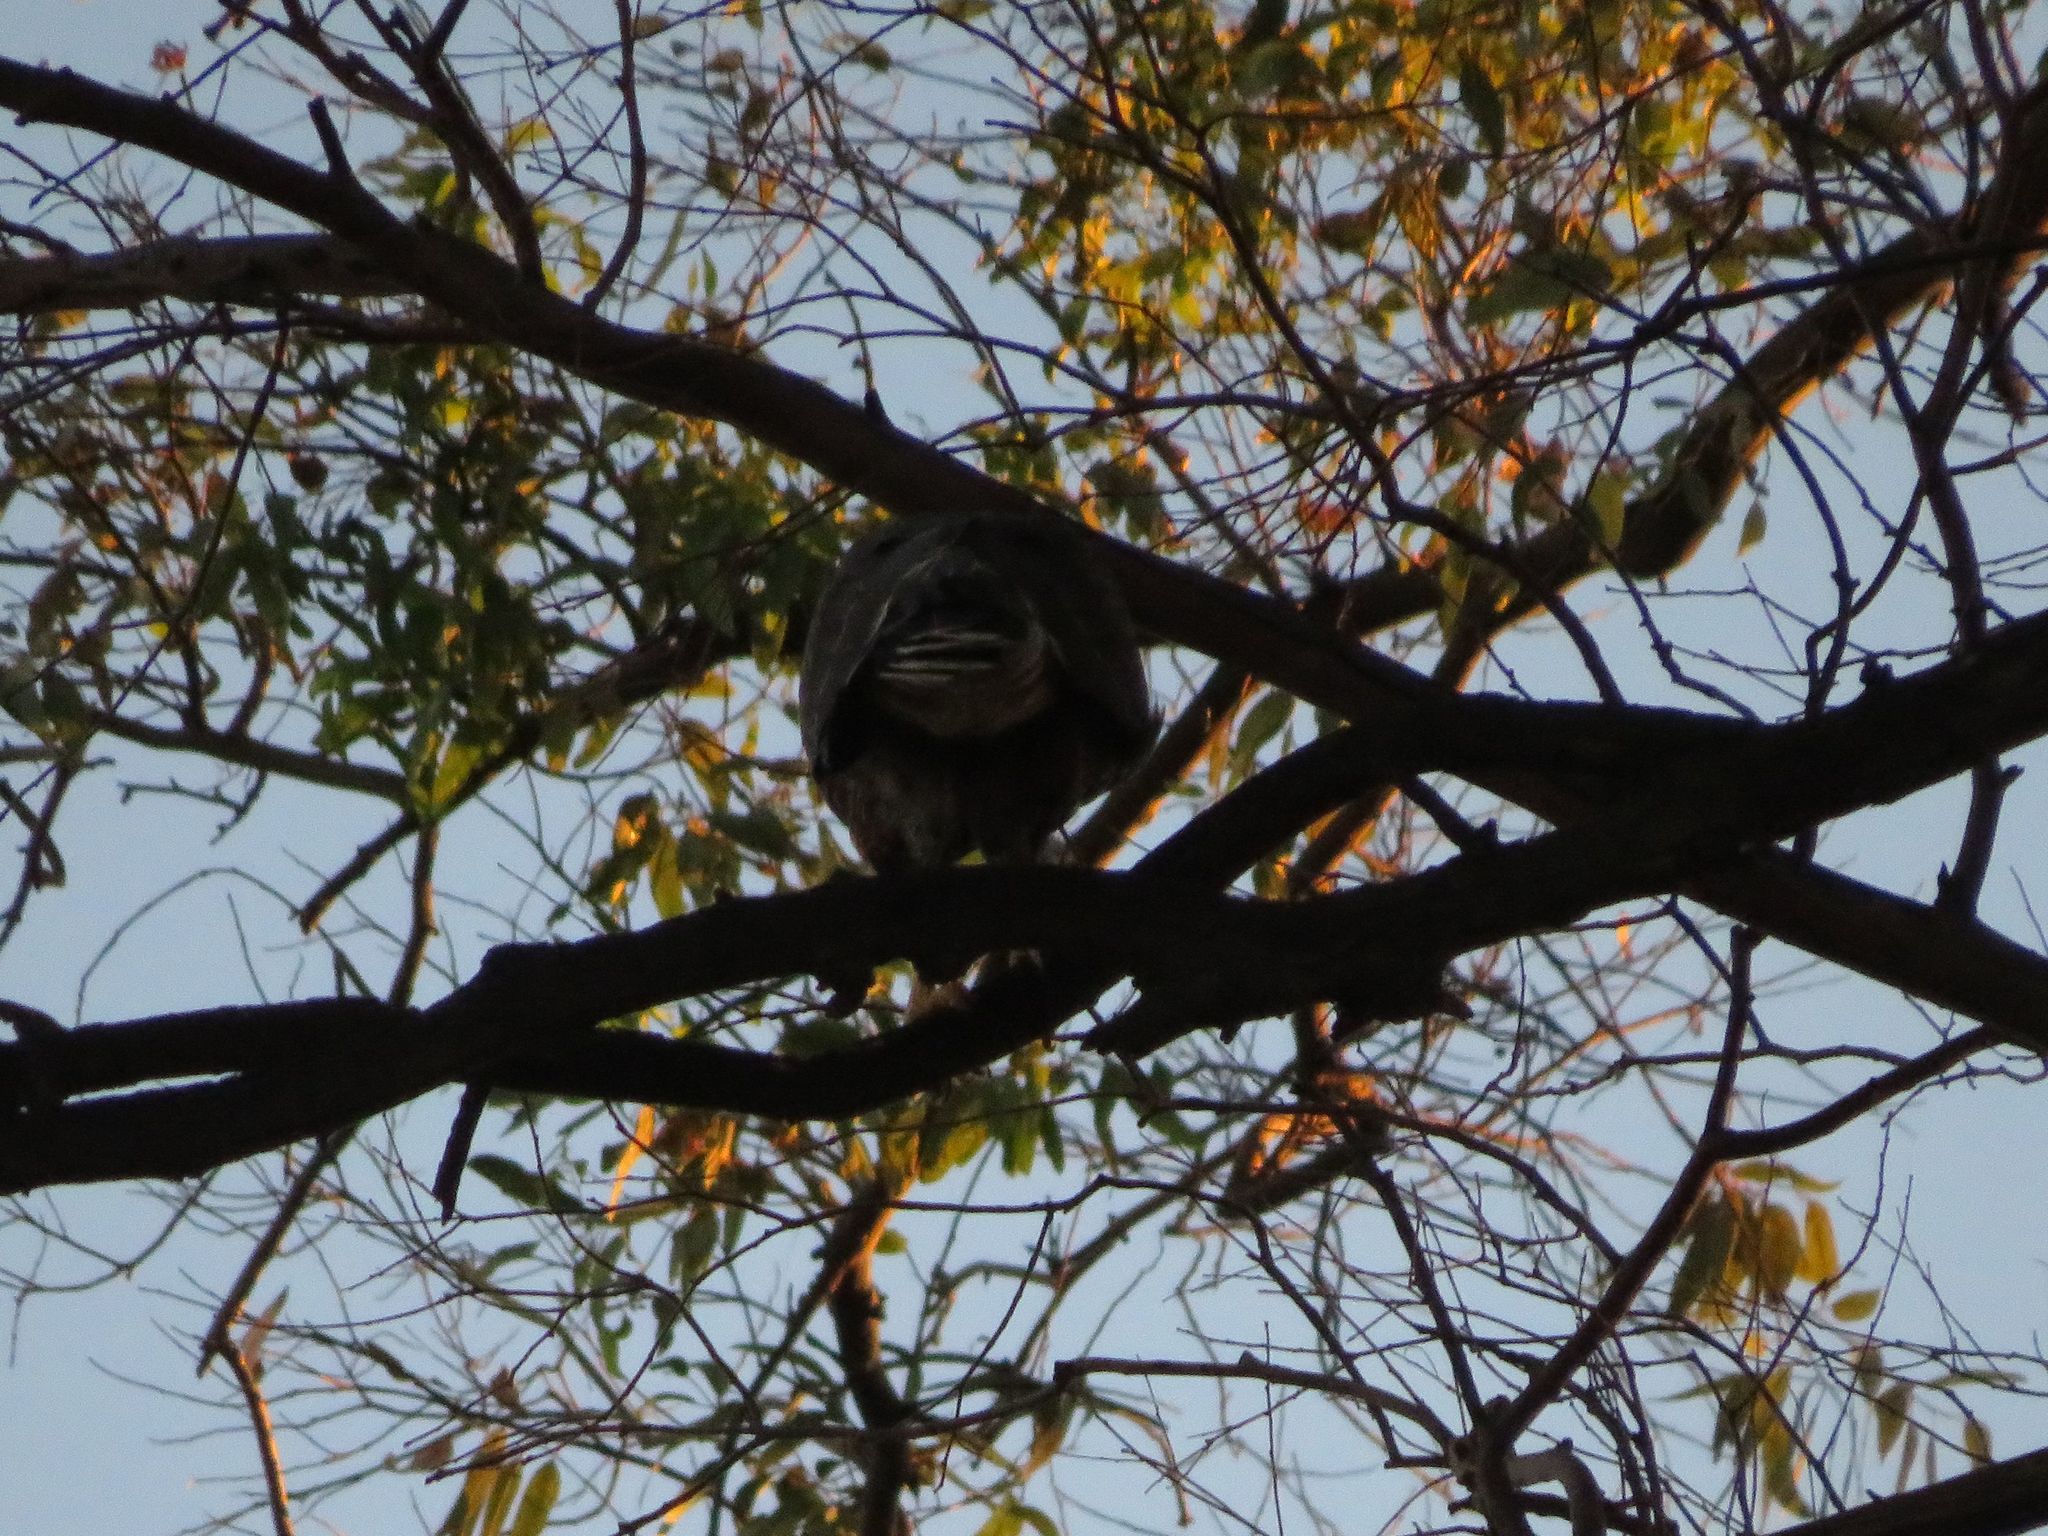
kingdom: Animalia
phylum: Chordata
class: Aves
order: Accipitriformes
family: Accipitridae
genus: Parabuteo
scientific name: Parabuteo unicinctus
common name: Harris's hawk
